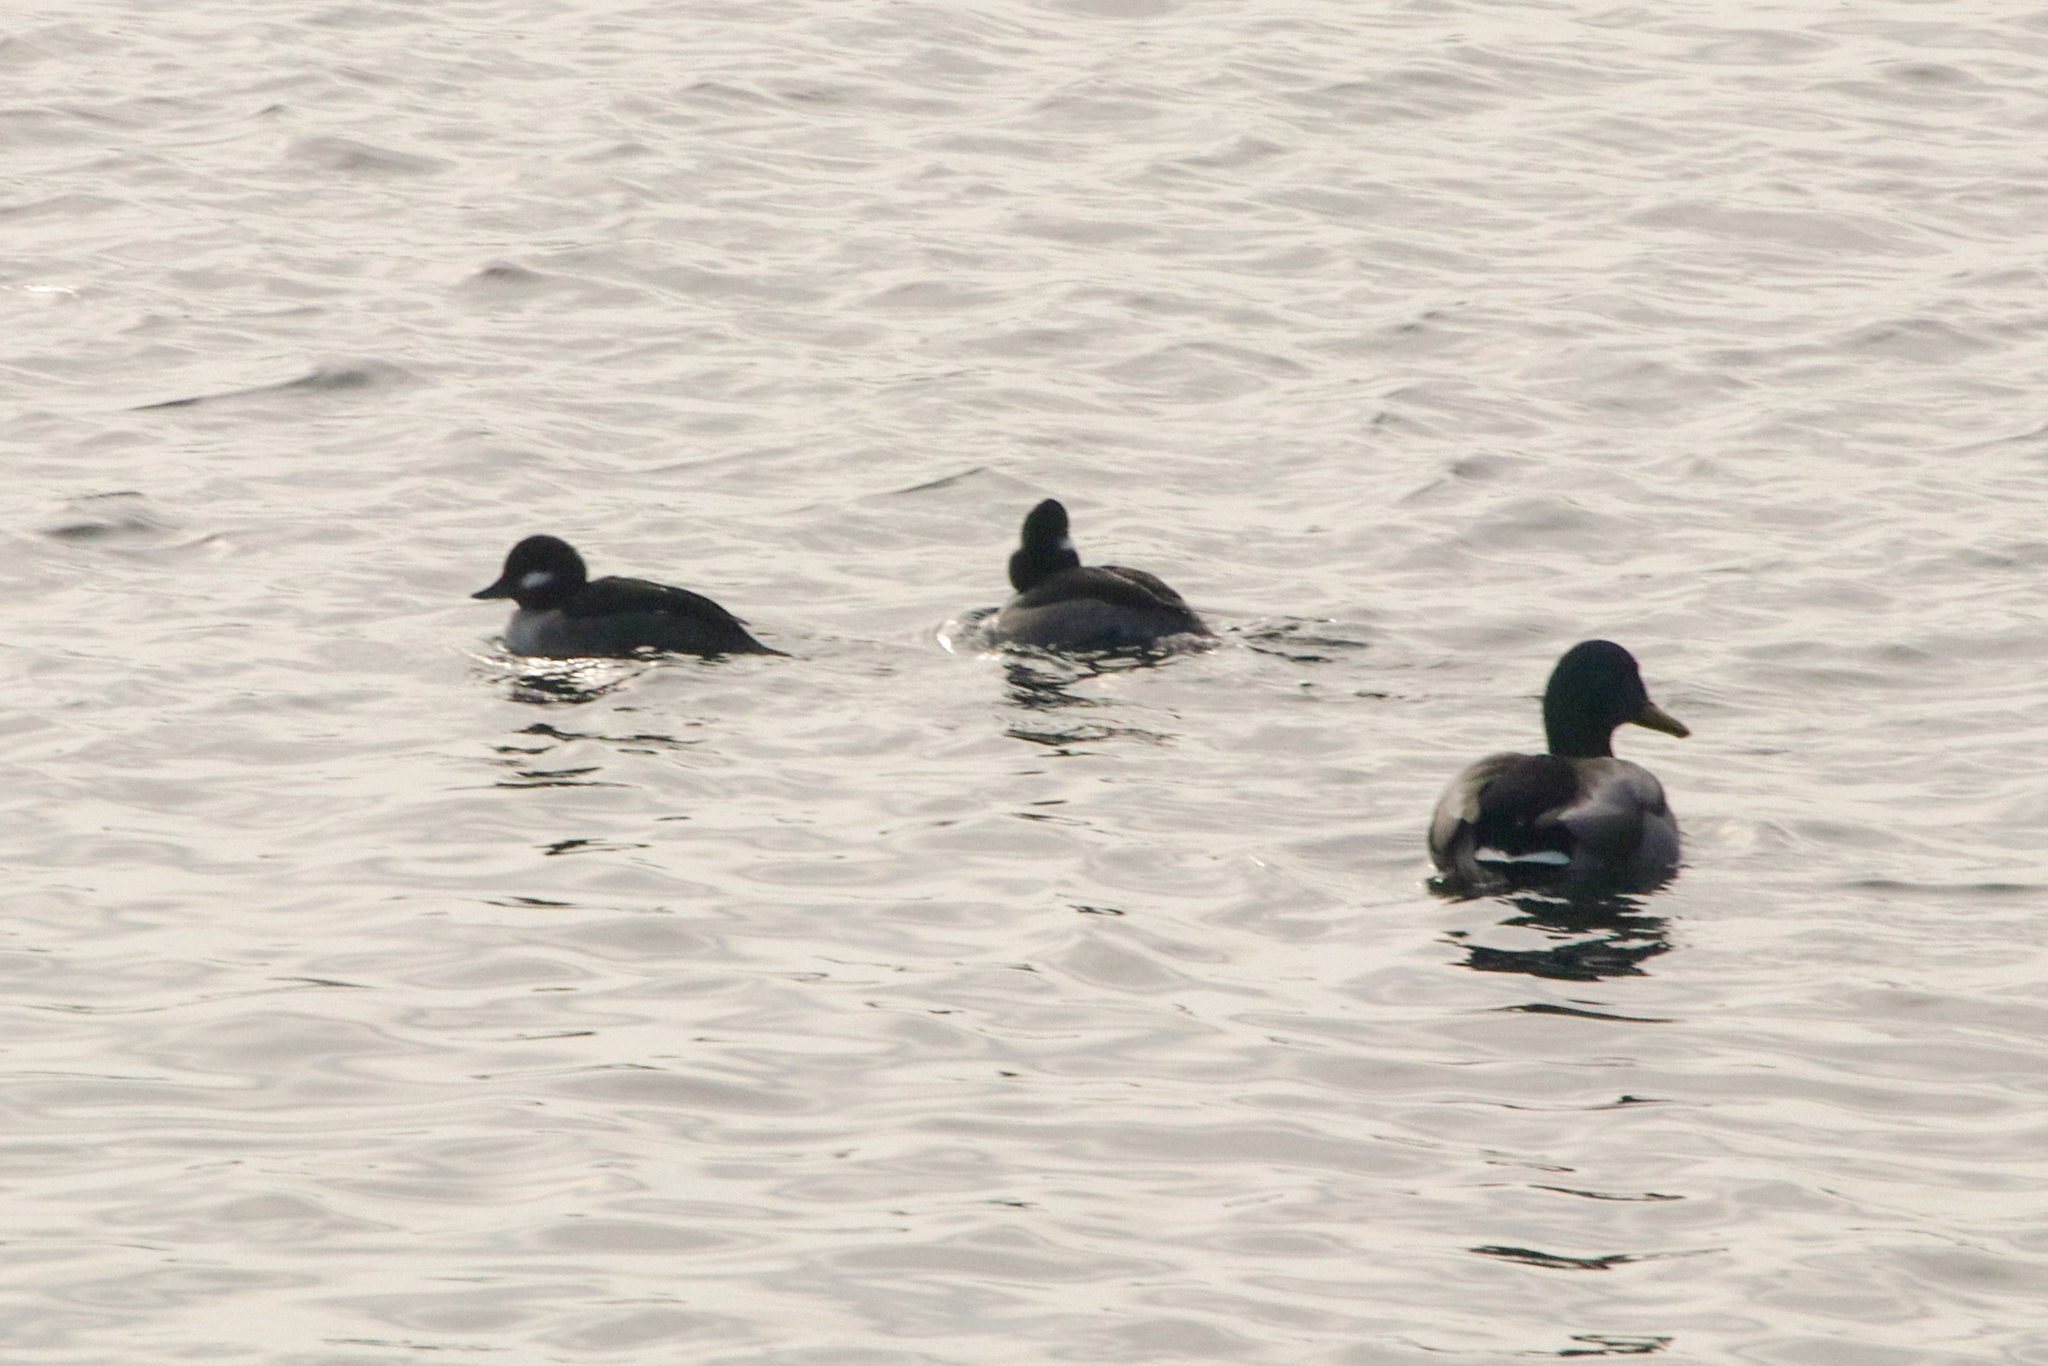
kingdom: Animalia
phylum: Chordata
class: Aves
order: Anseriformes
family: Anatidae
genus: Bucephala
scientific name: Bucephala albeola
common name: Bufflehead
